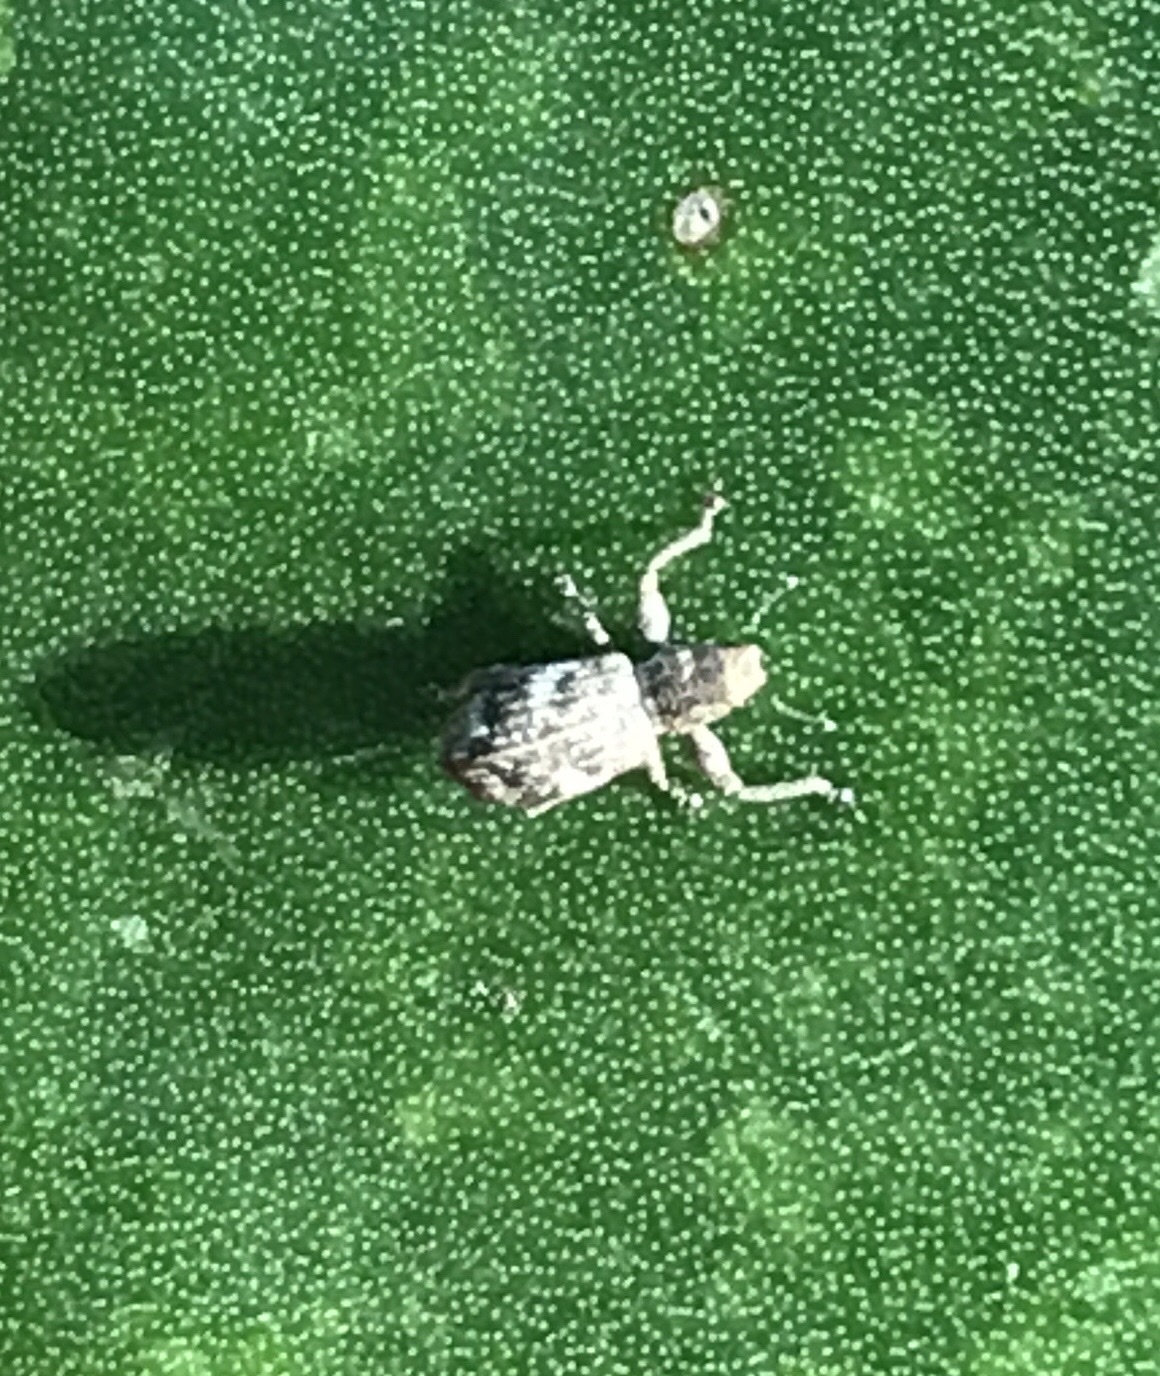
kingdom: Animalia
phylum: Arthropoda
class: Insecta
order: Coleoptera
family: Curculionidae
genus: Pandeleteius
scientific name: Pandeleteius cinereus
